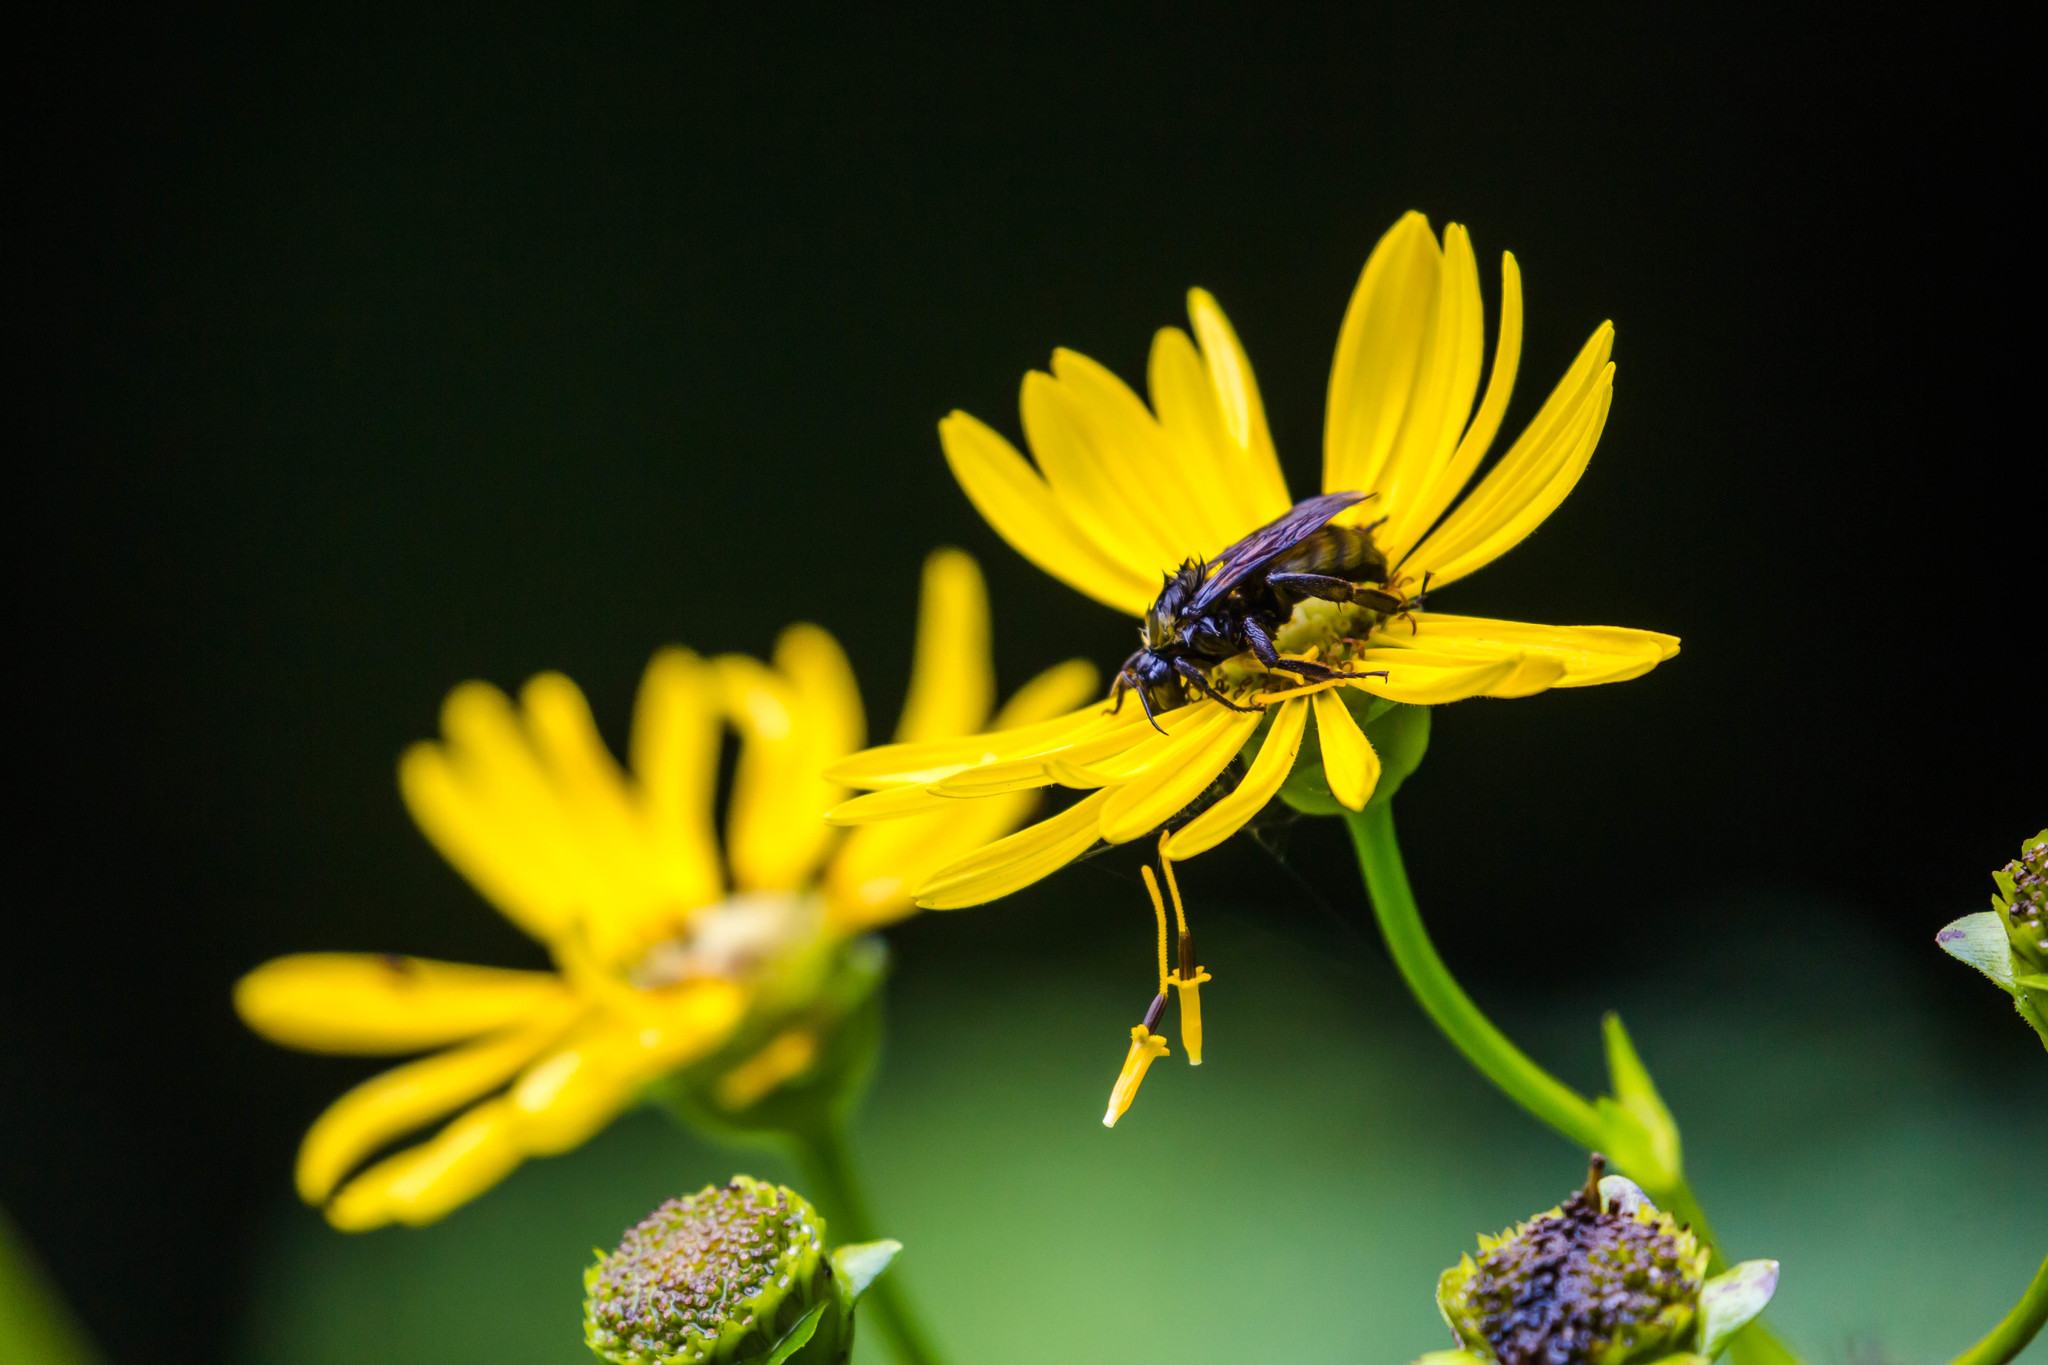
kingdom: Animalia
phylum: Arthropoda
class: Insecta
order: Hymenoptera
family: Apidae
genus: Bombus
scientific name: Bombus pensylvanicus
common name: Bumble bee
